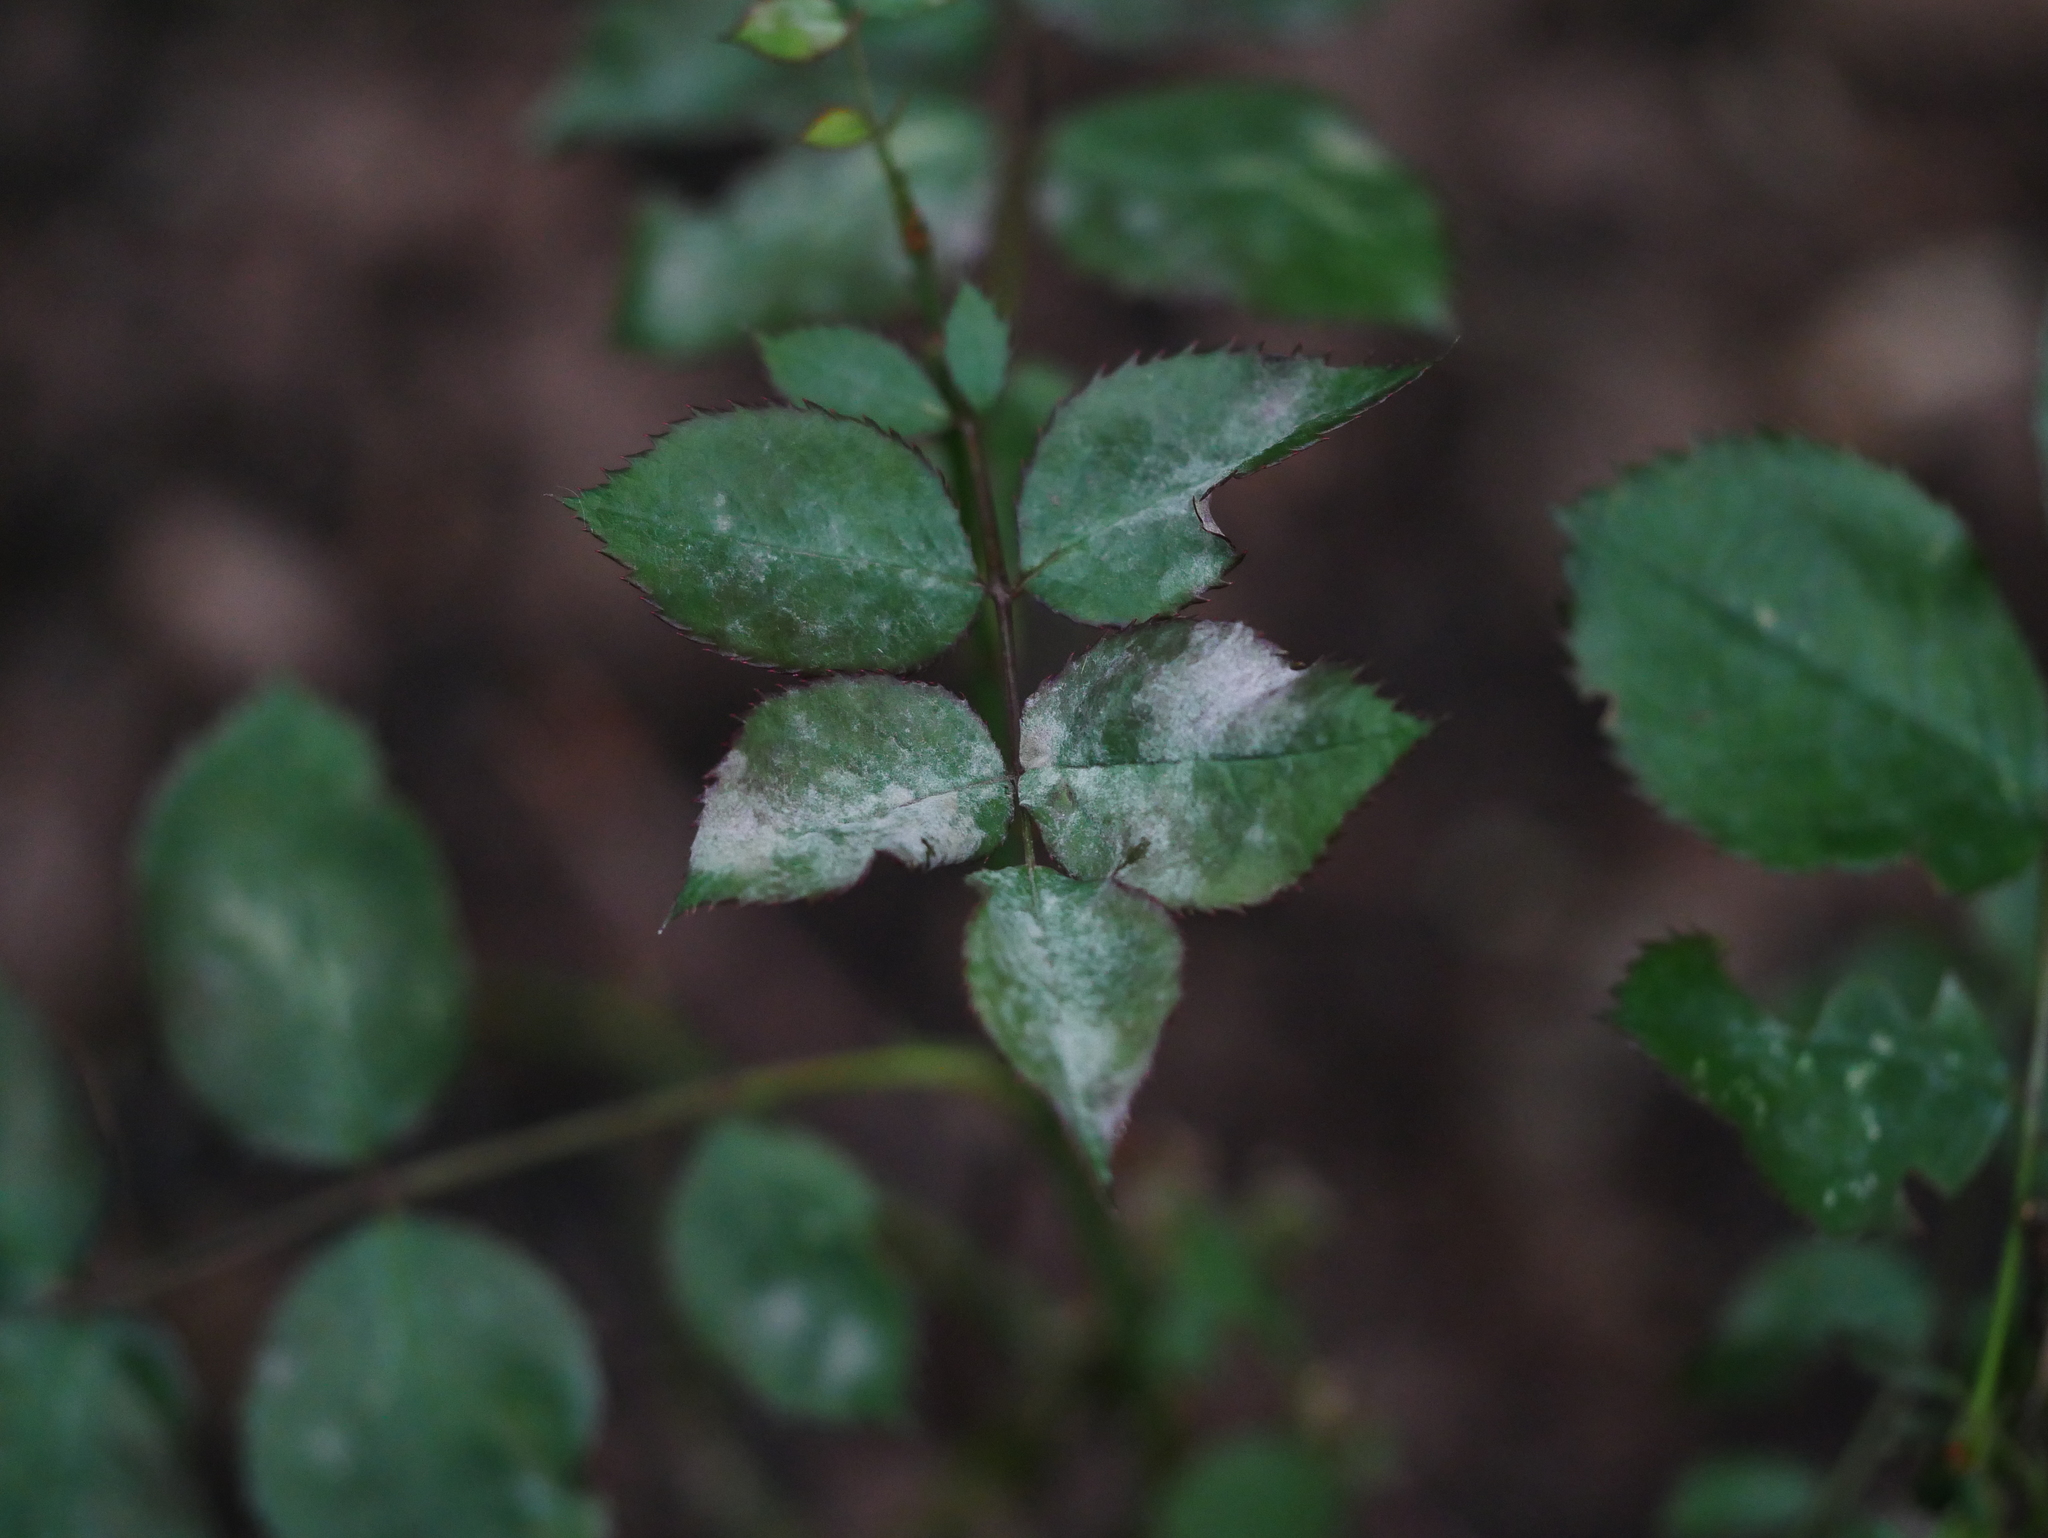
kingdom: Fungi
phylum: Ascomycota
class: Leotiomycetes
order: Helotiales
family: Erysiphaceae
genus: Podosphaera
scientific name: Podosphaera pannosa
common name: Rose mildew
